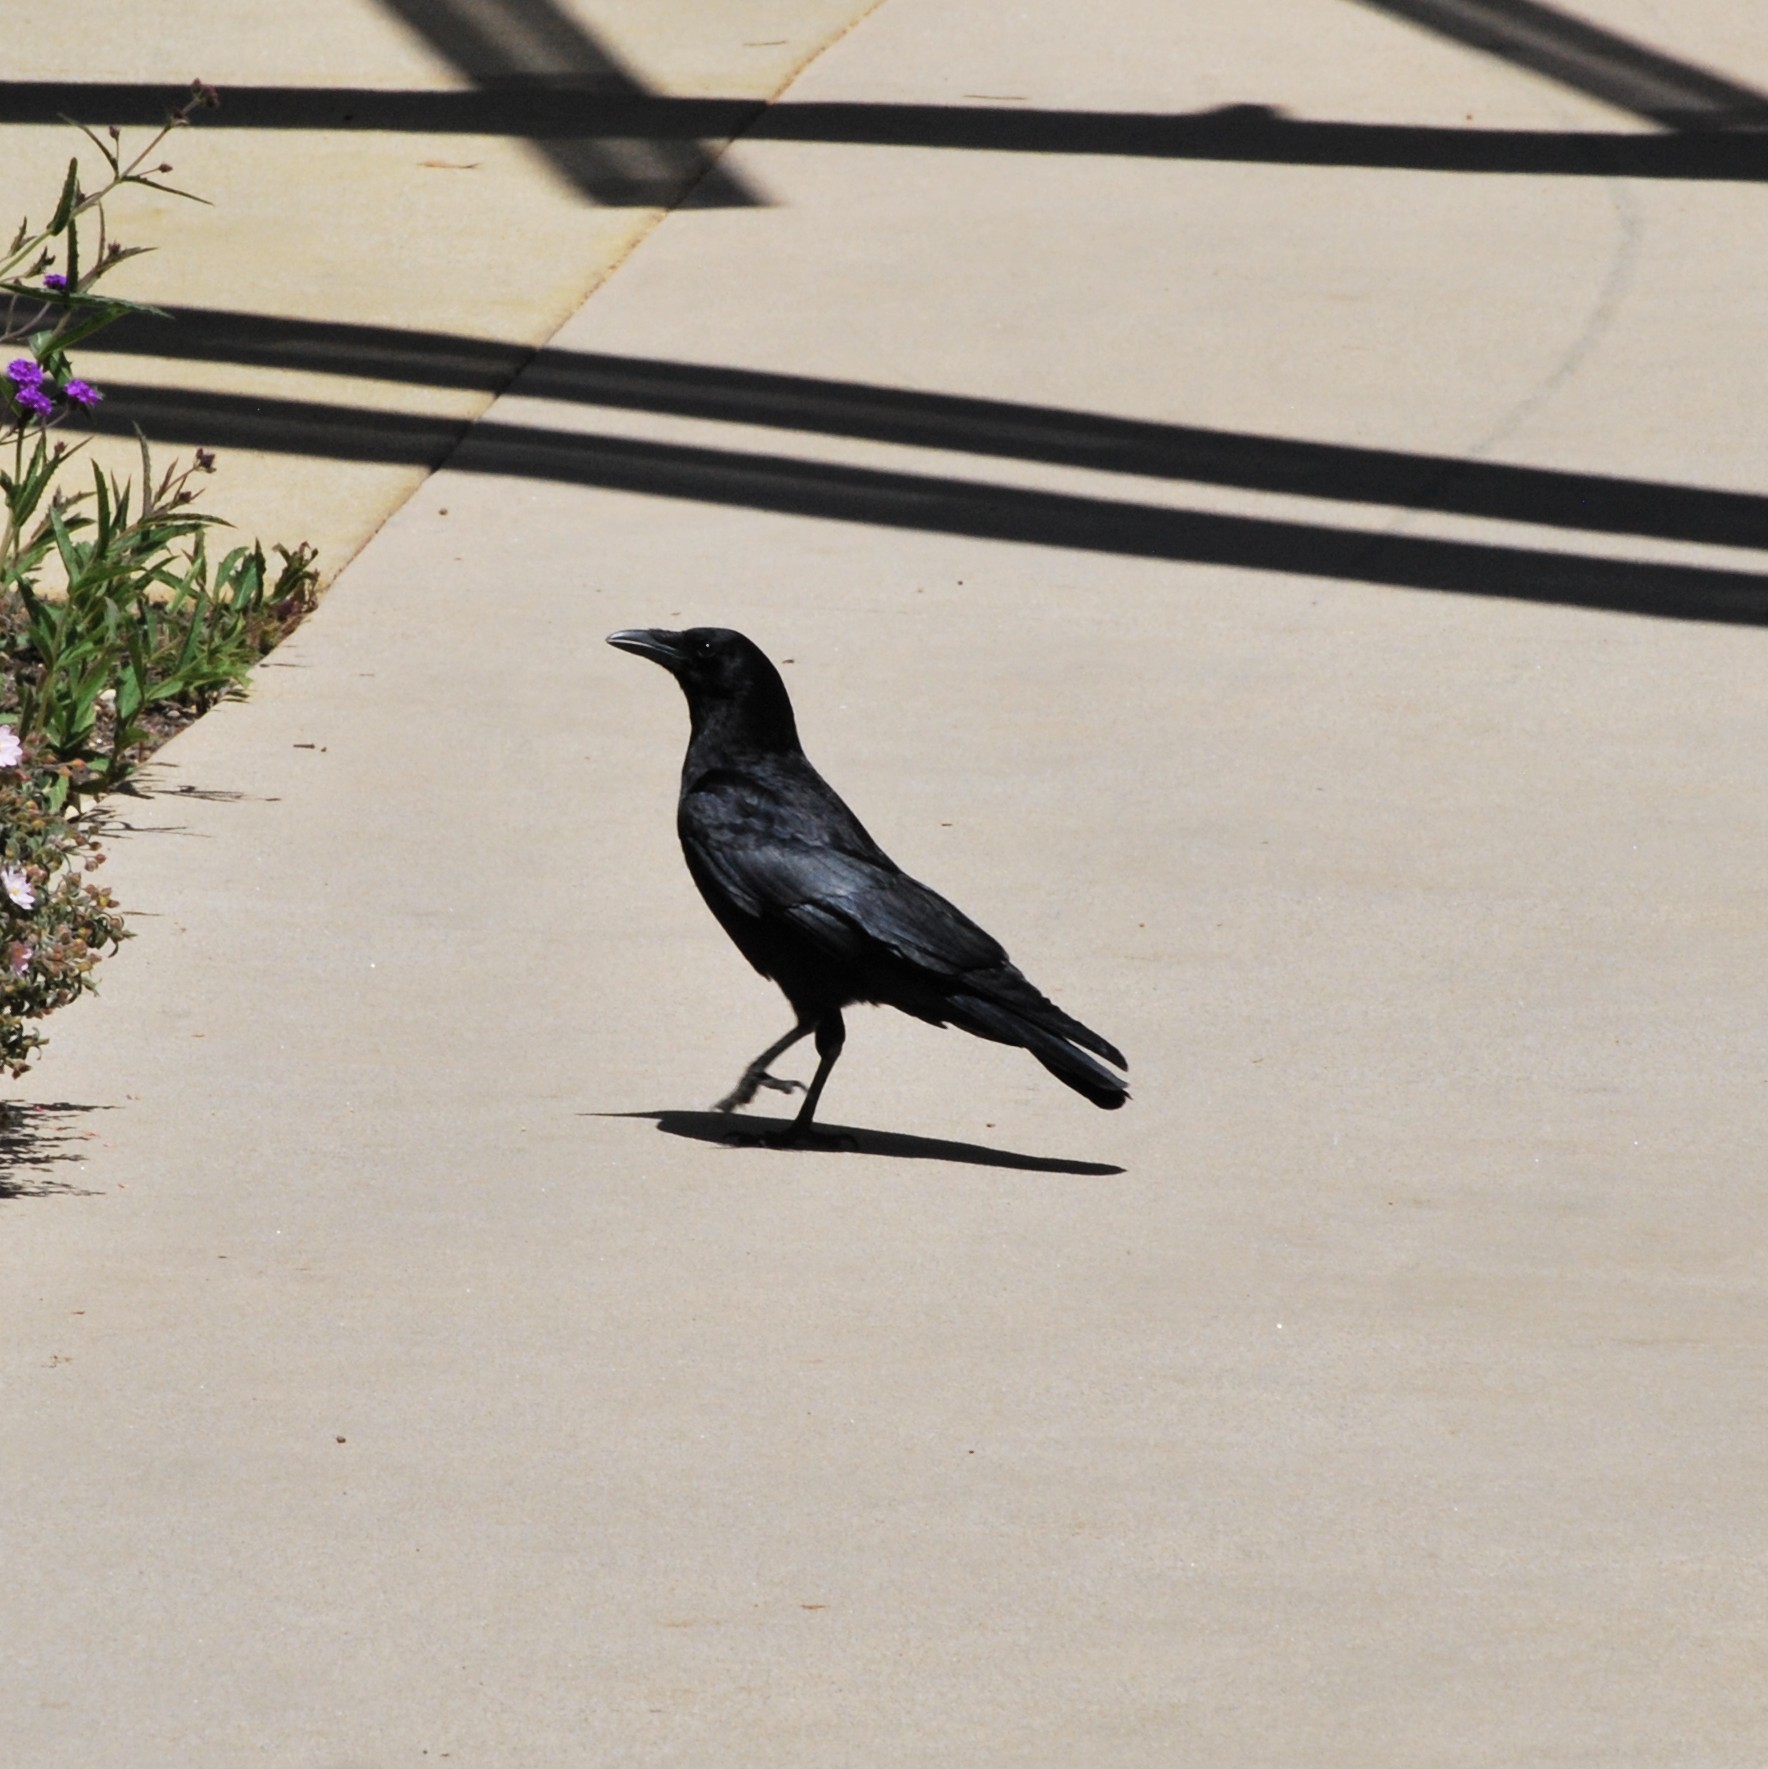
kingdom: Animalia
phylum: Chordata
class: Aves
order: Passeriformes
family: Corvidae
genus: Corvus
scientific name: Corvus brachyrhynchos
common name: American crow
